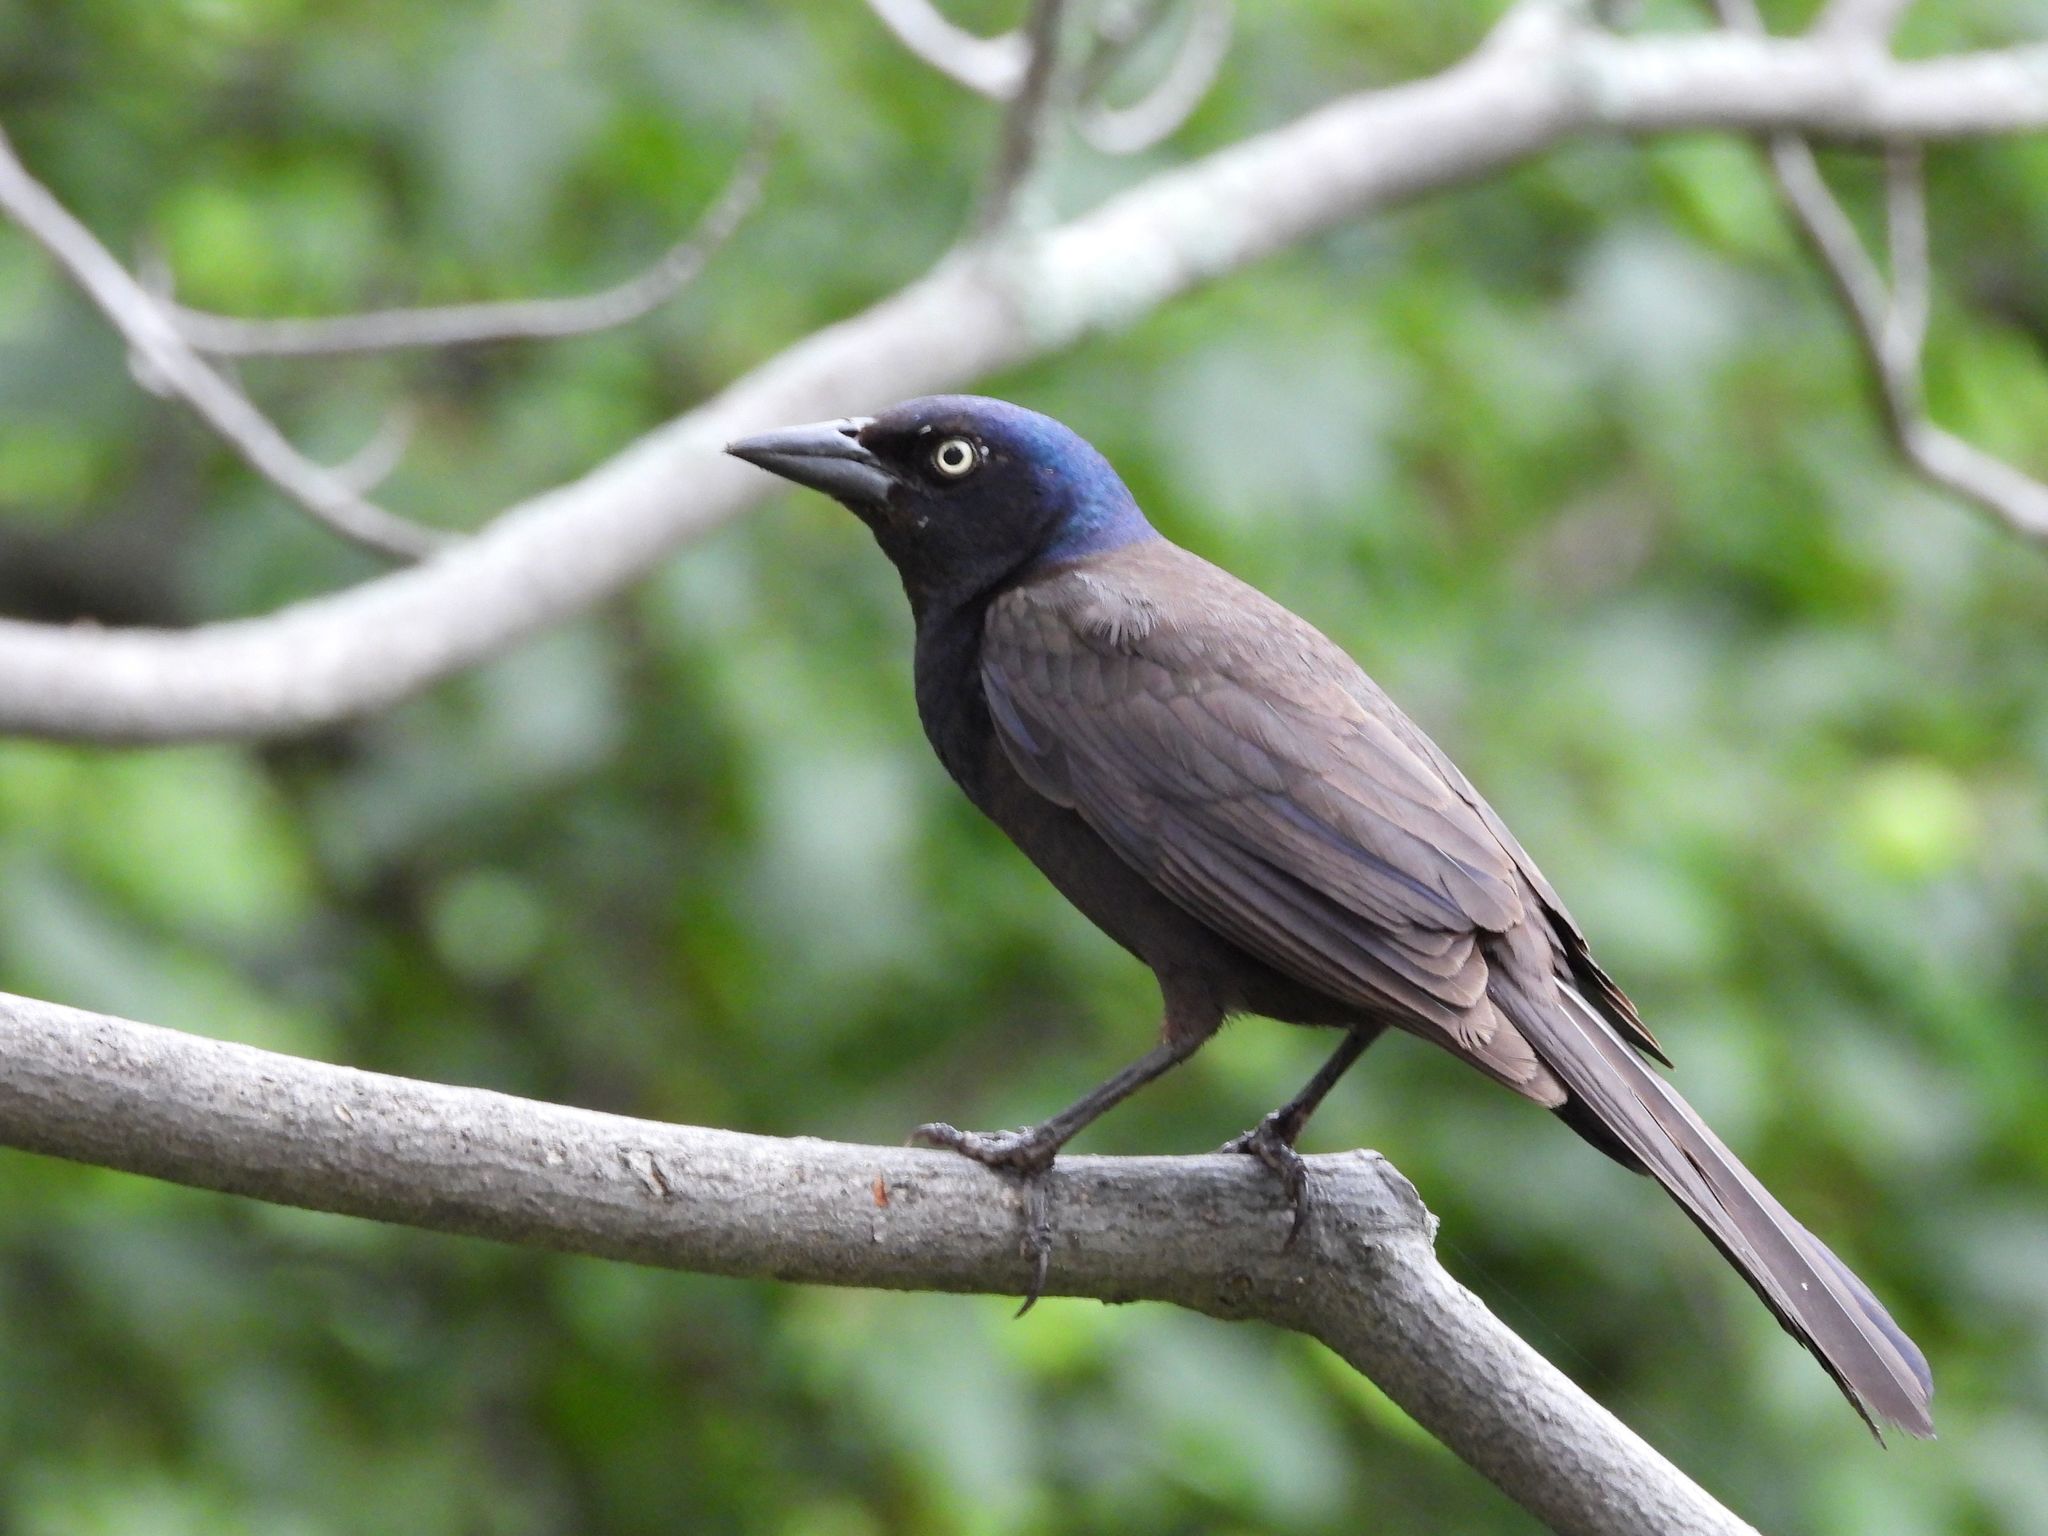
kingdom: Animalia
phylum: Chordata
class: Aves
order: Passeriformes
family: Icteridae
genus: Quiscalus
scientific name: Quiscalus quiscula
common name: Common grackle
